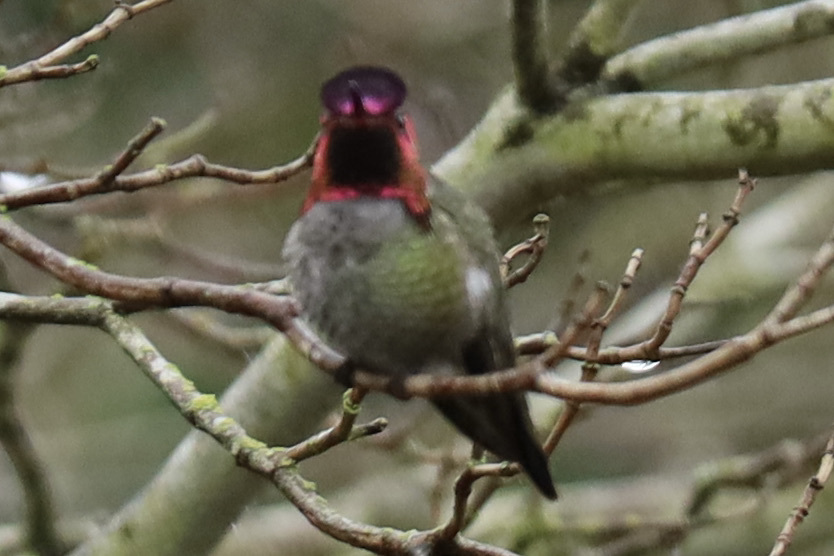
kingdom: Animalia
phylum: Chordata
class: Aves
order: Apodiformes
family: Trochilidae
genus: Calypte
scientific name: Calypte anna
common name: Anna's hummingbird
